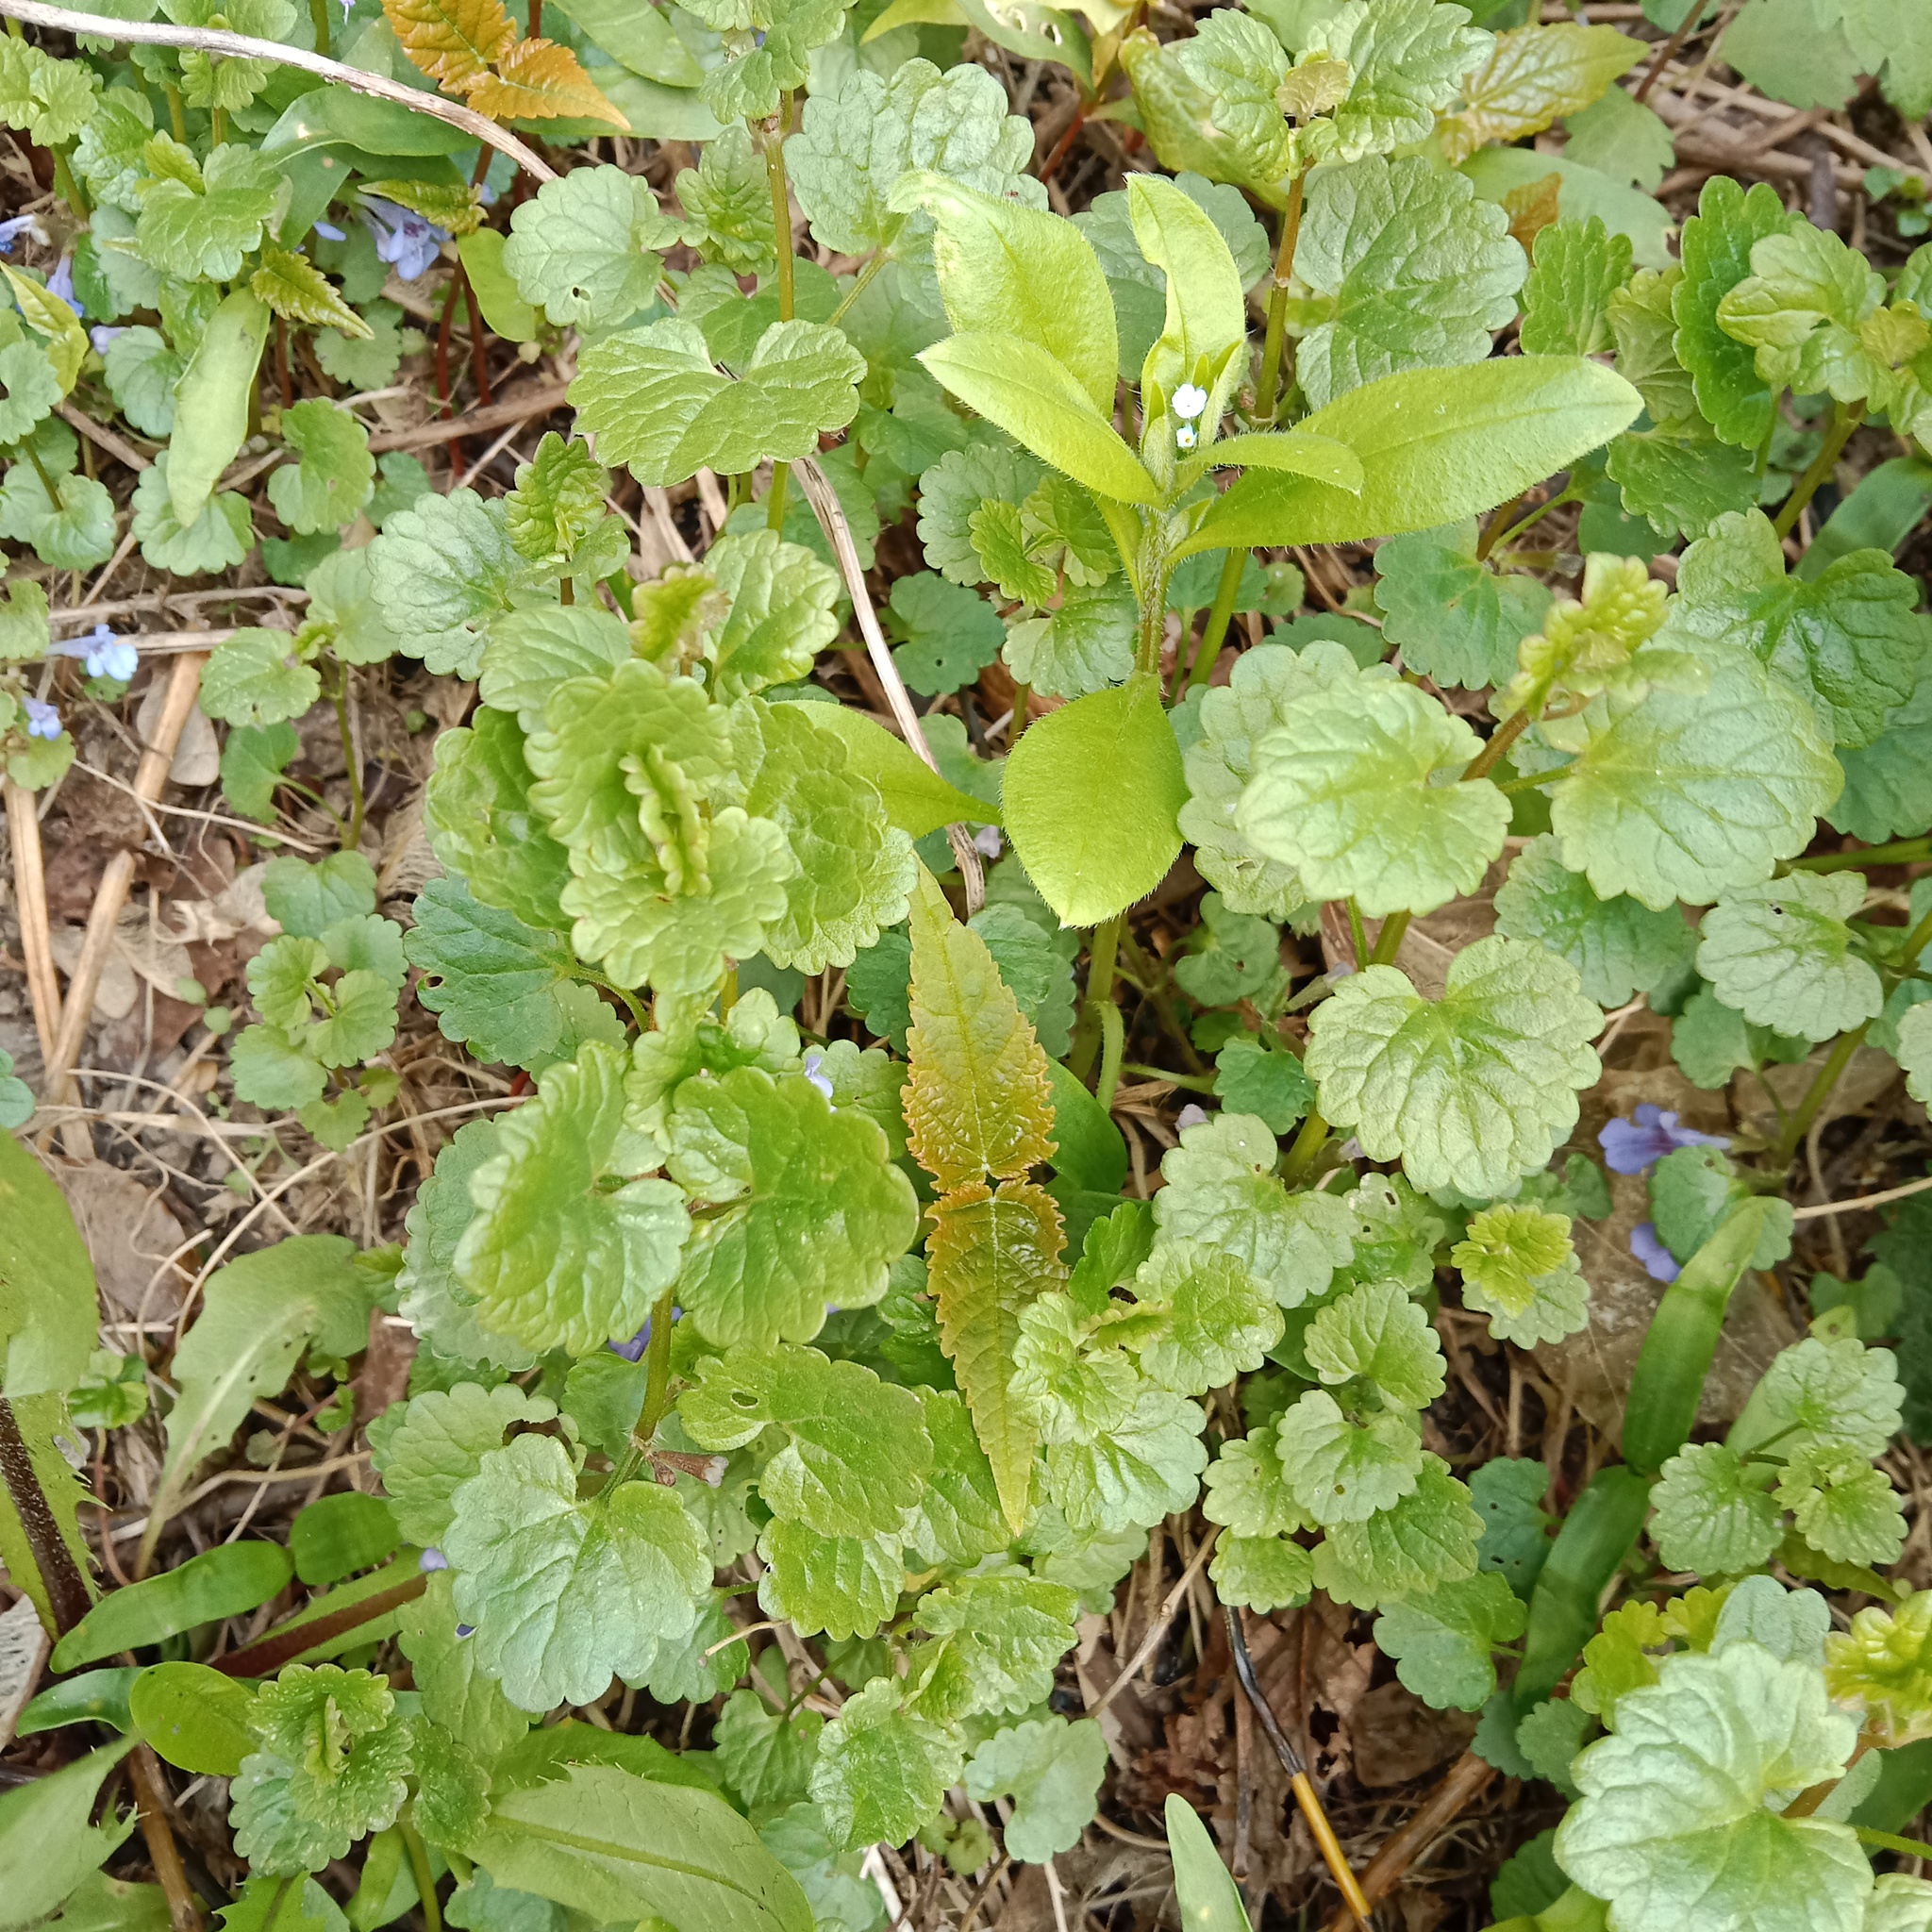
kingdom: Plantae
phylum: Tracheophyta
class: Magnoliopsida
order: Lamiales
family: Lamiaceae
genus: Glechoma
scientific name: Glechoma hederacea
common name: Ground ivy
